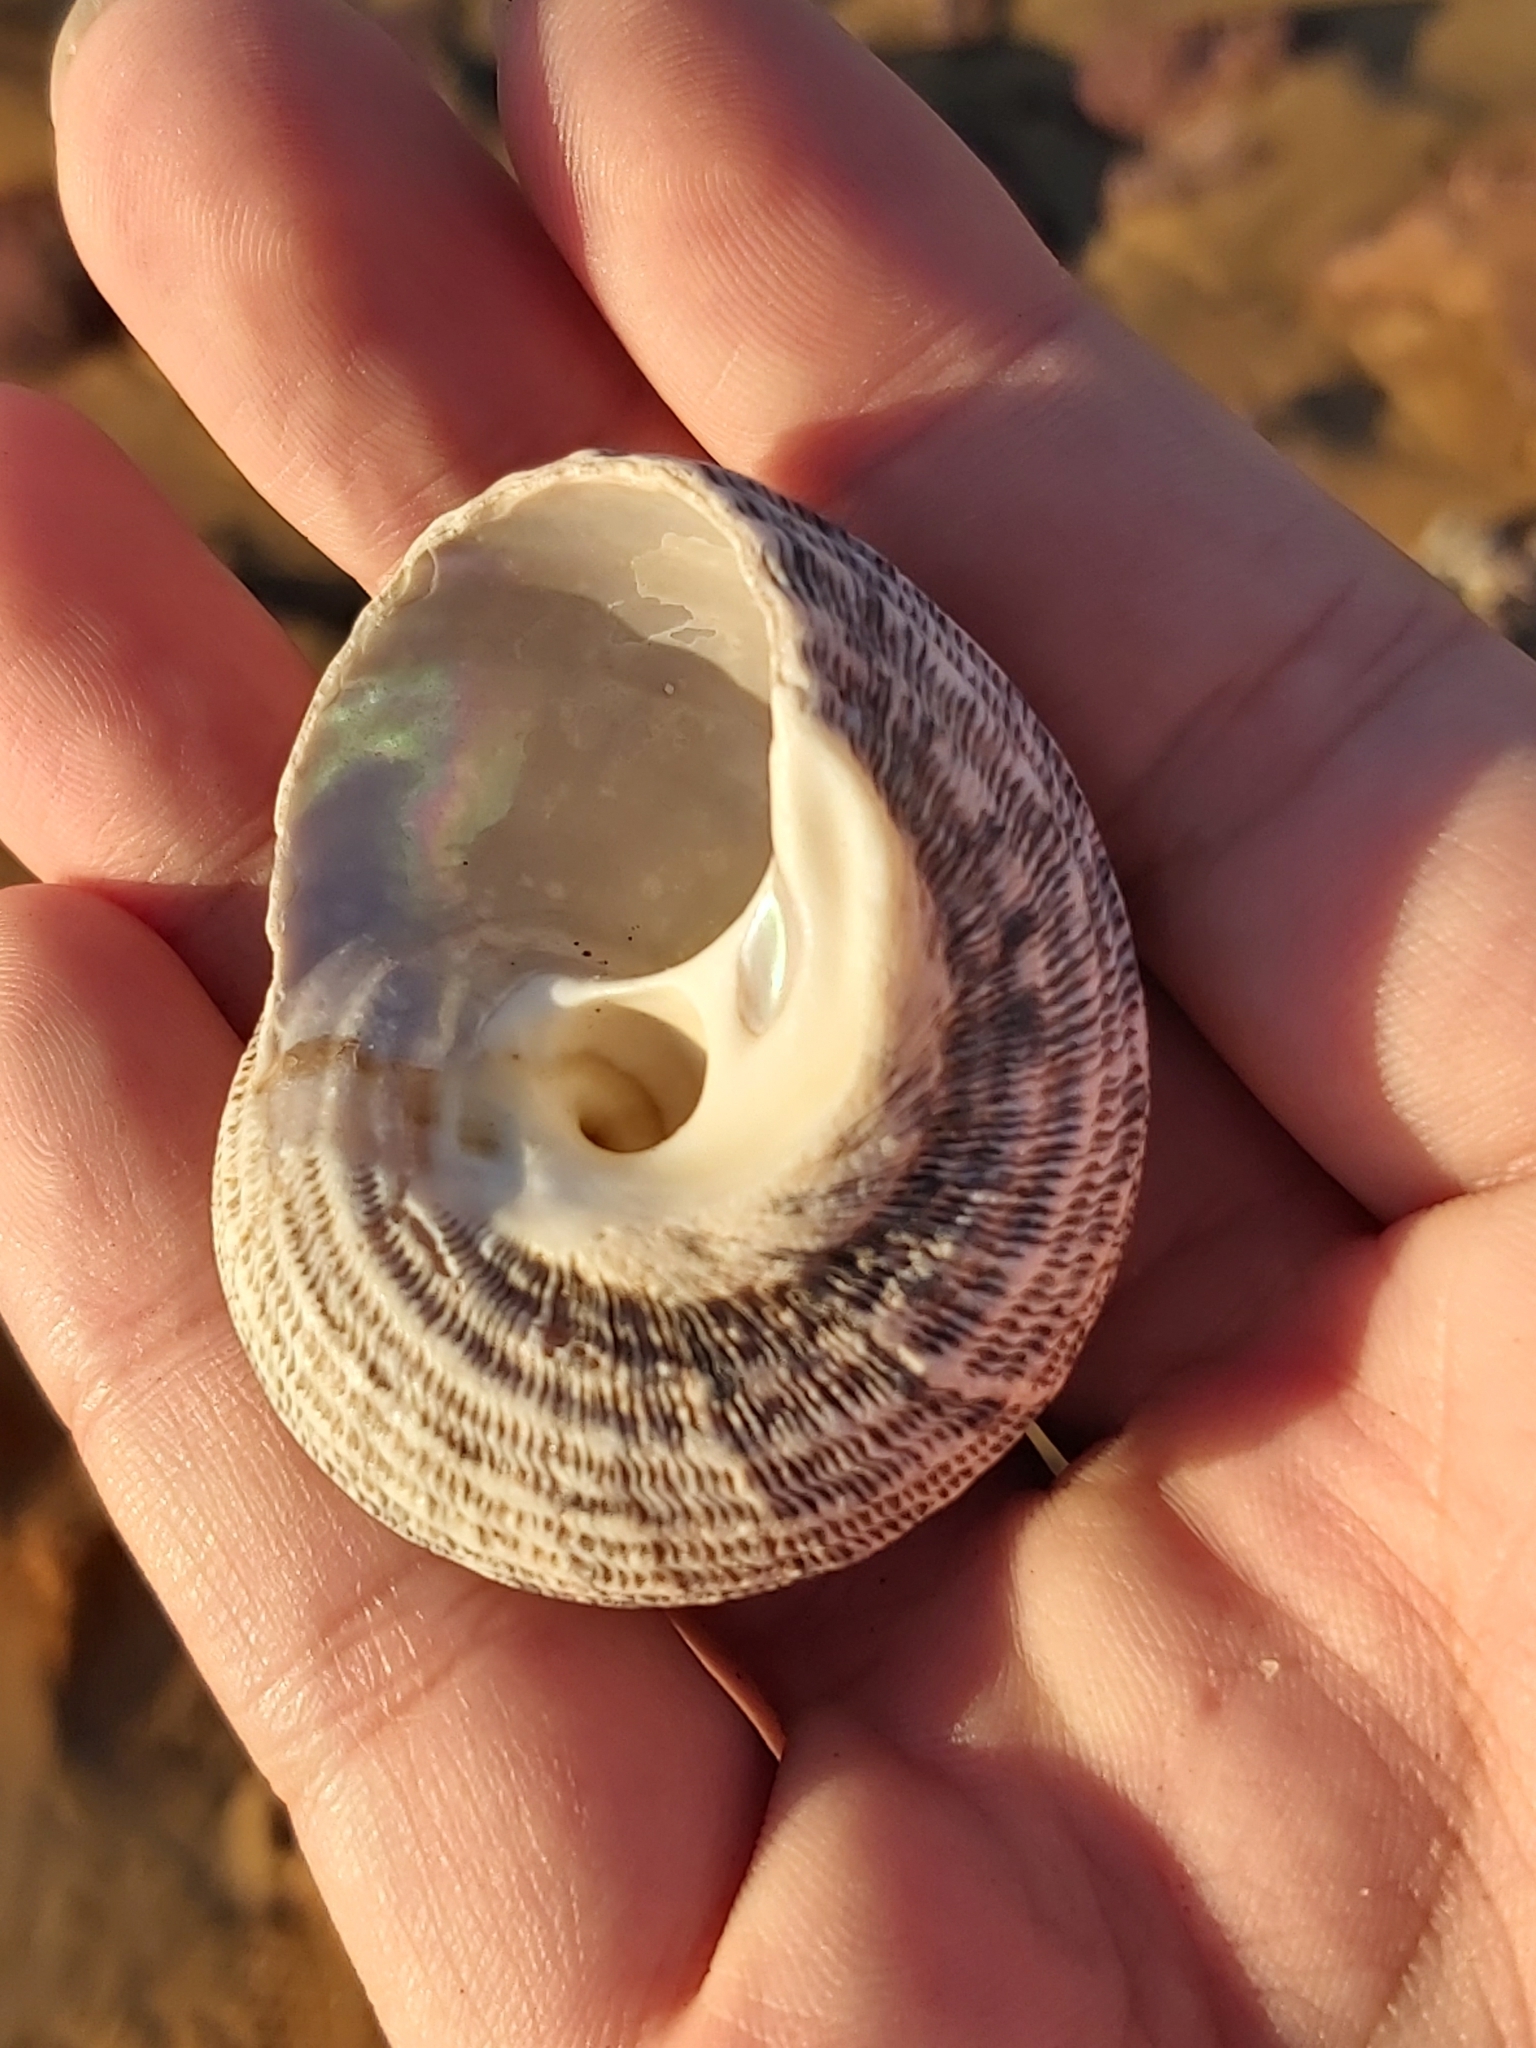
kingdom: Animalia
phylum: Mollusca
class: Gastropoda
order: Trochida
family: Turbinidae
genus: Lunella
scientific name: Lunella torquata
